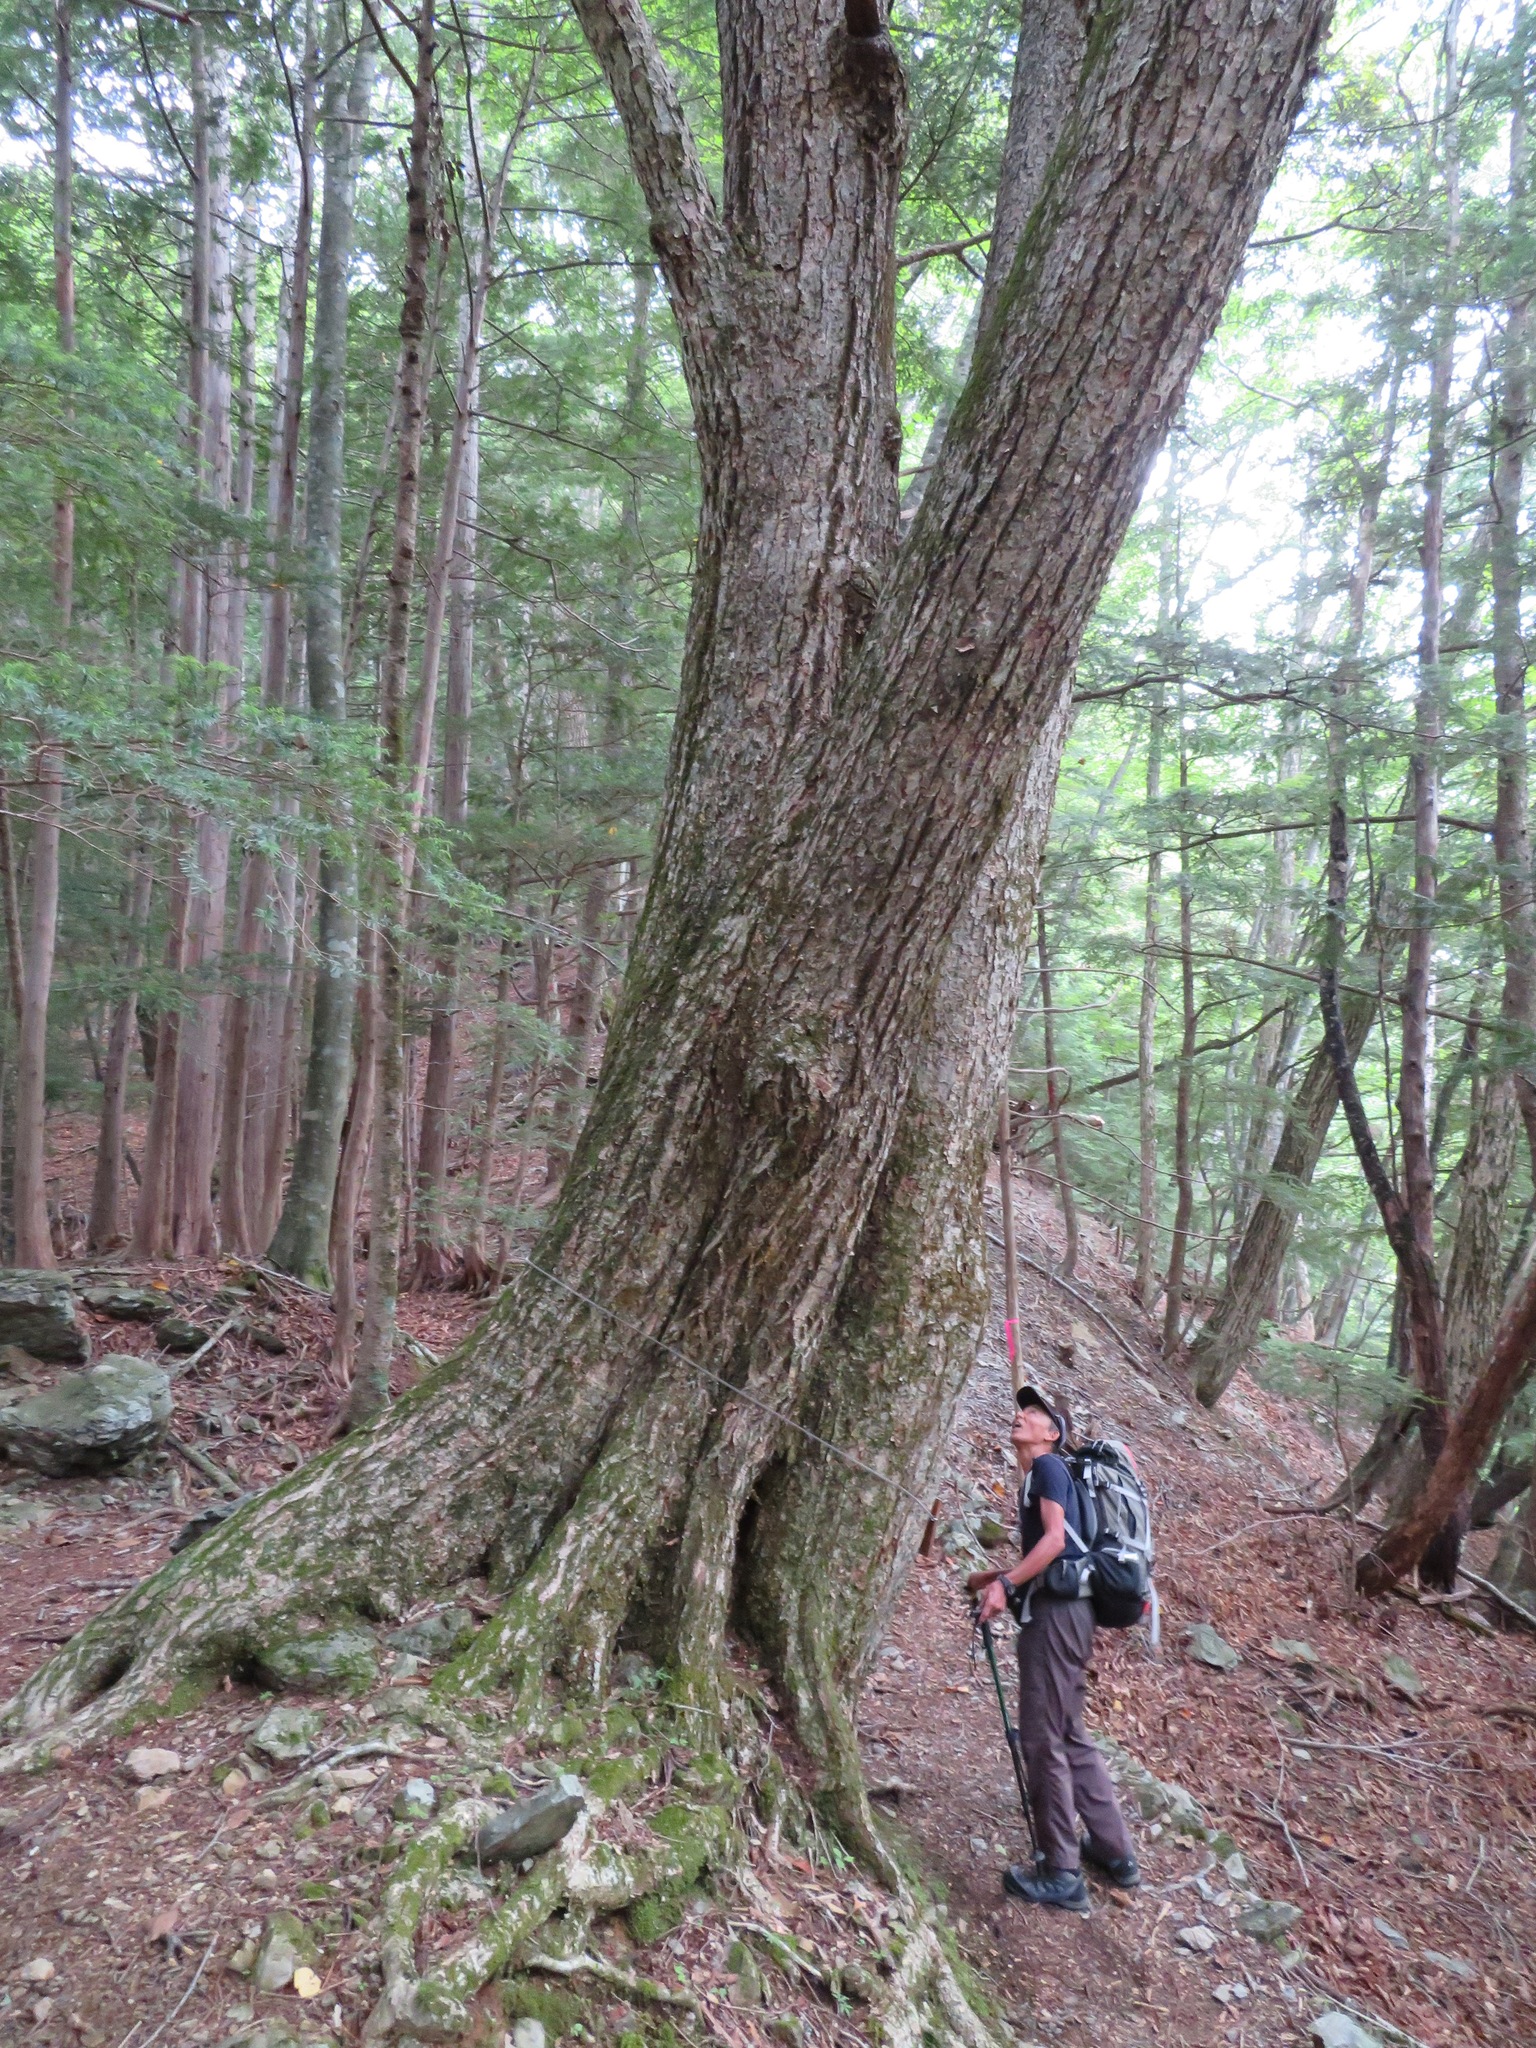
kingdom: Plantae
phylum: Tracheophyta
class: Magnoliopsida
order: Fagales
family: Fagaceae
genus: Quercus
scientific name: Quercus crispula
